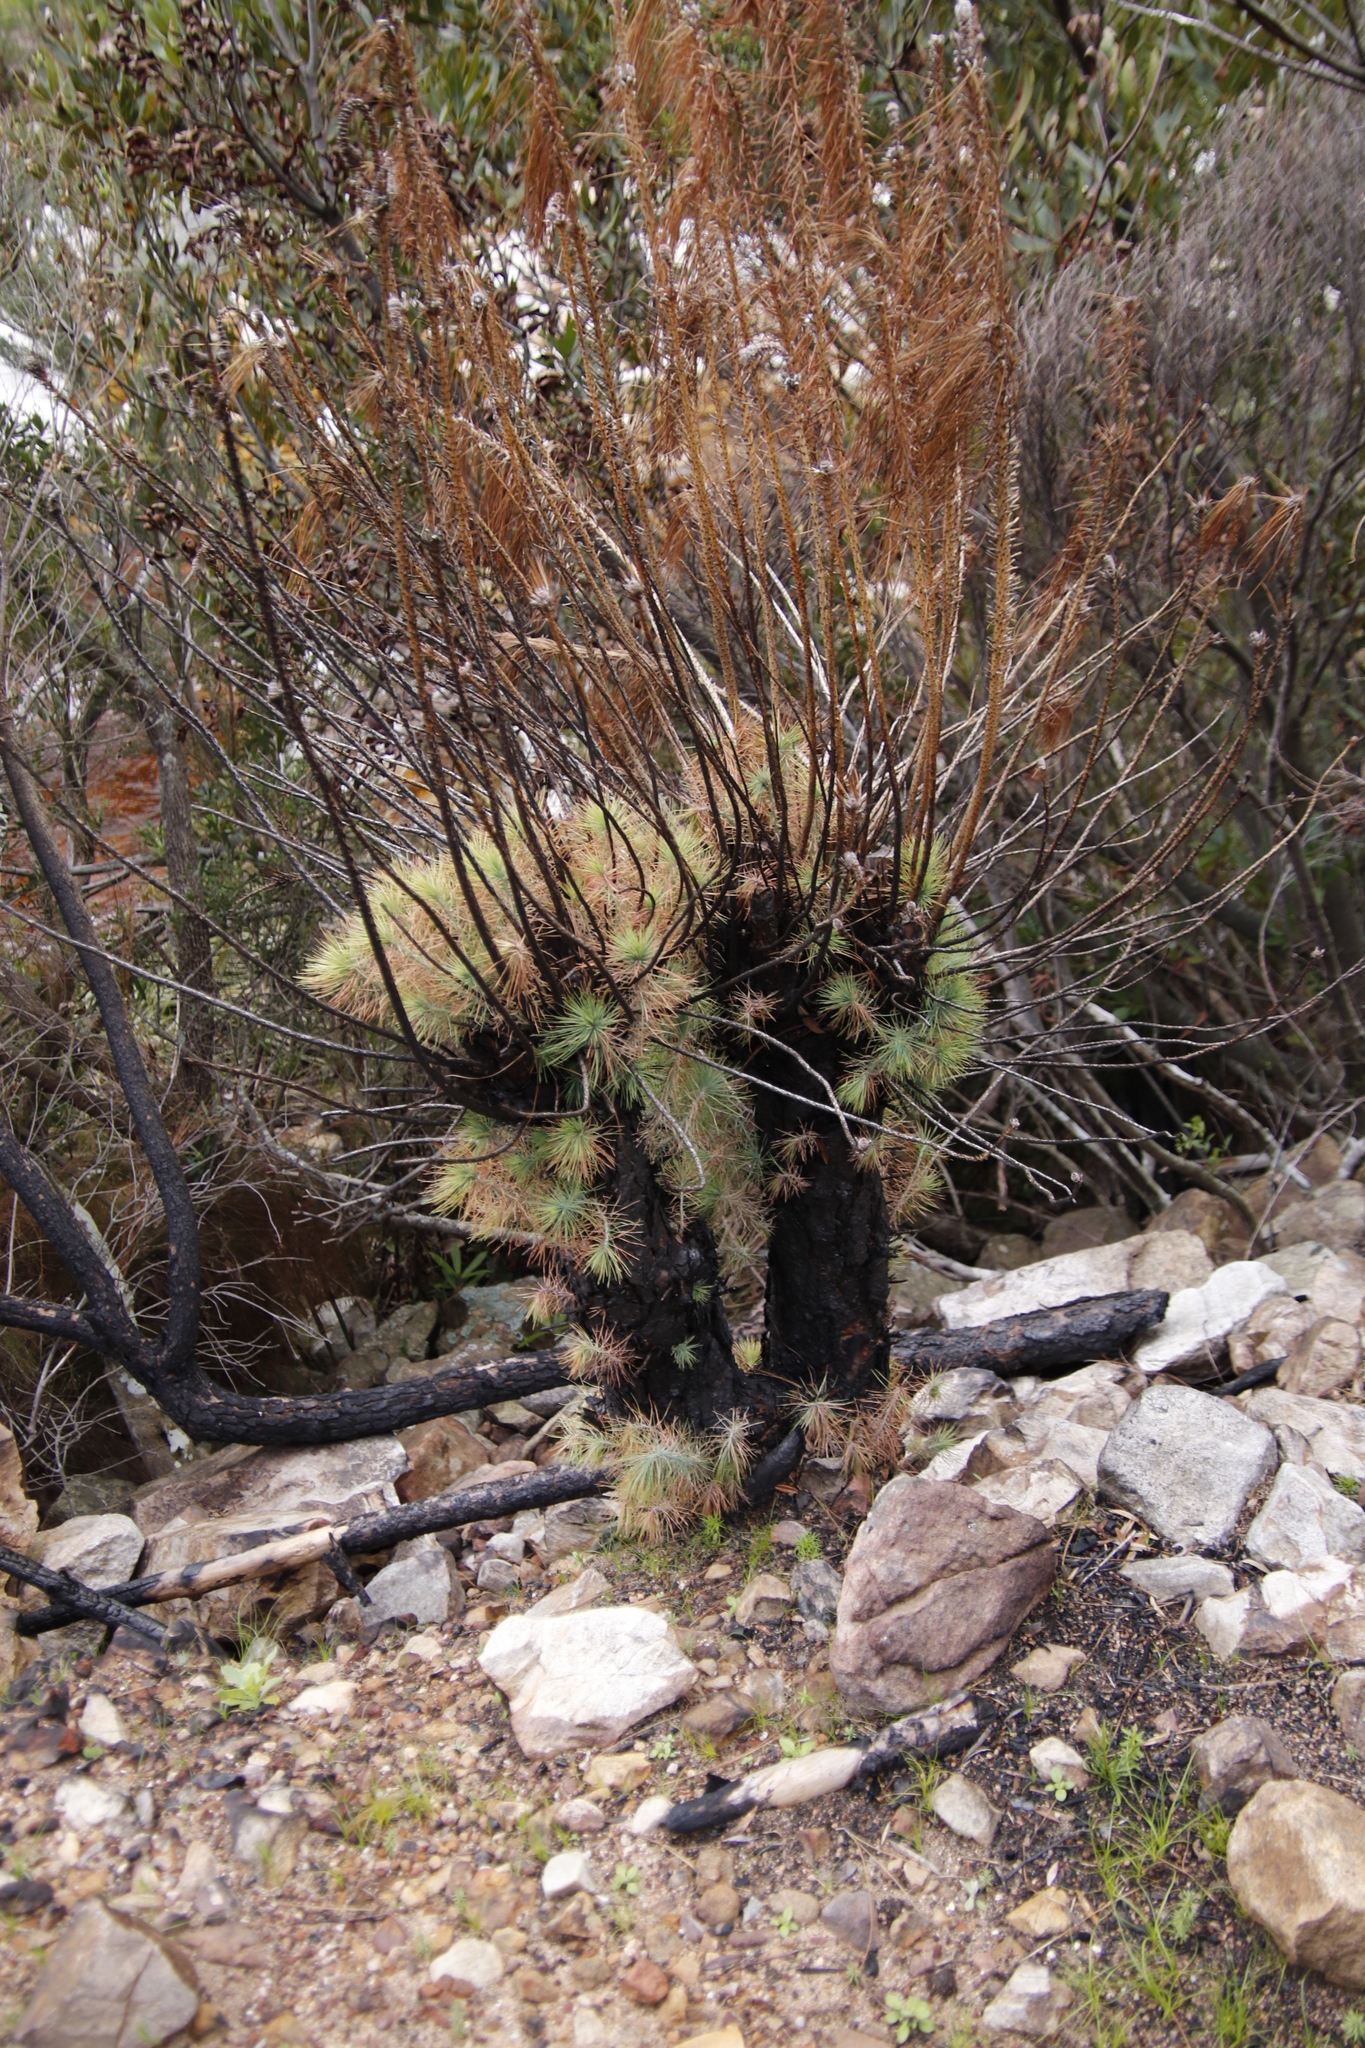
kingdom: Plantae
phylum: Tracheophyta
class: Pinopsida
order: Pinales
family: Pinaceae
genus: Pinus
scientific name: Pinus canariensis
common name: Canary islands pine
